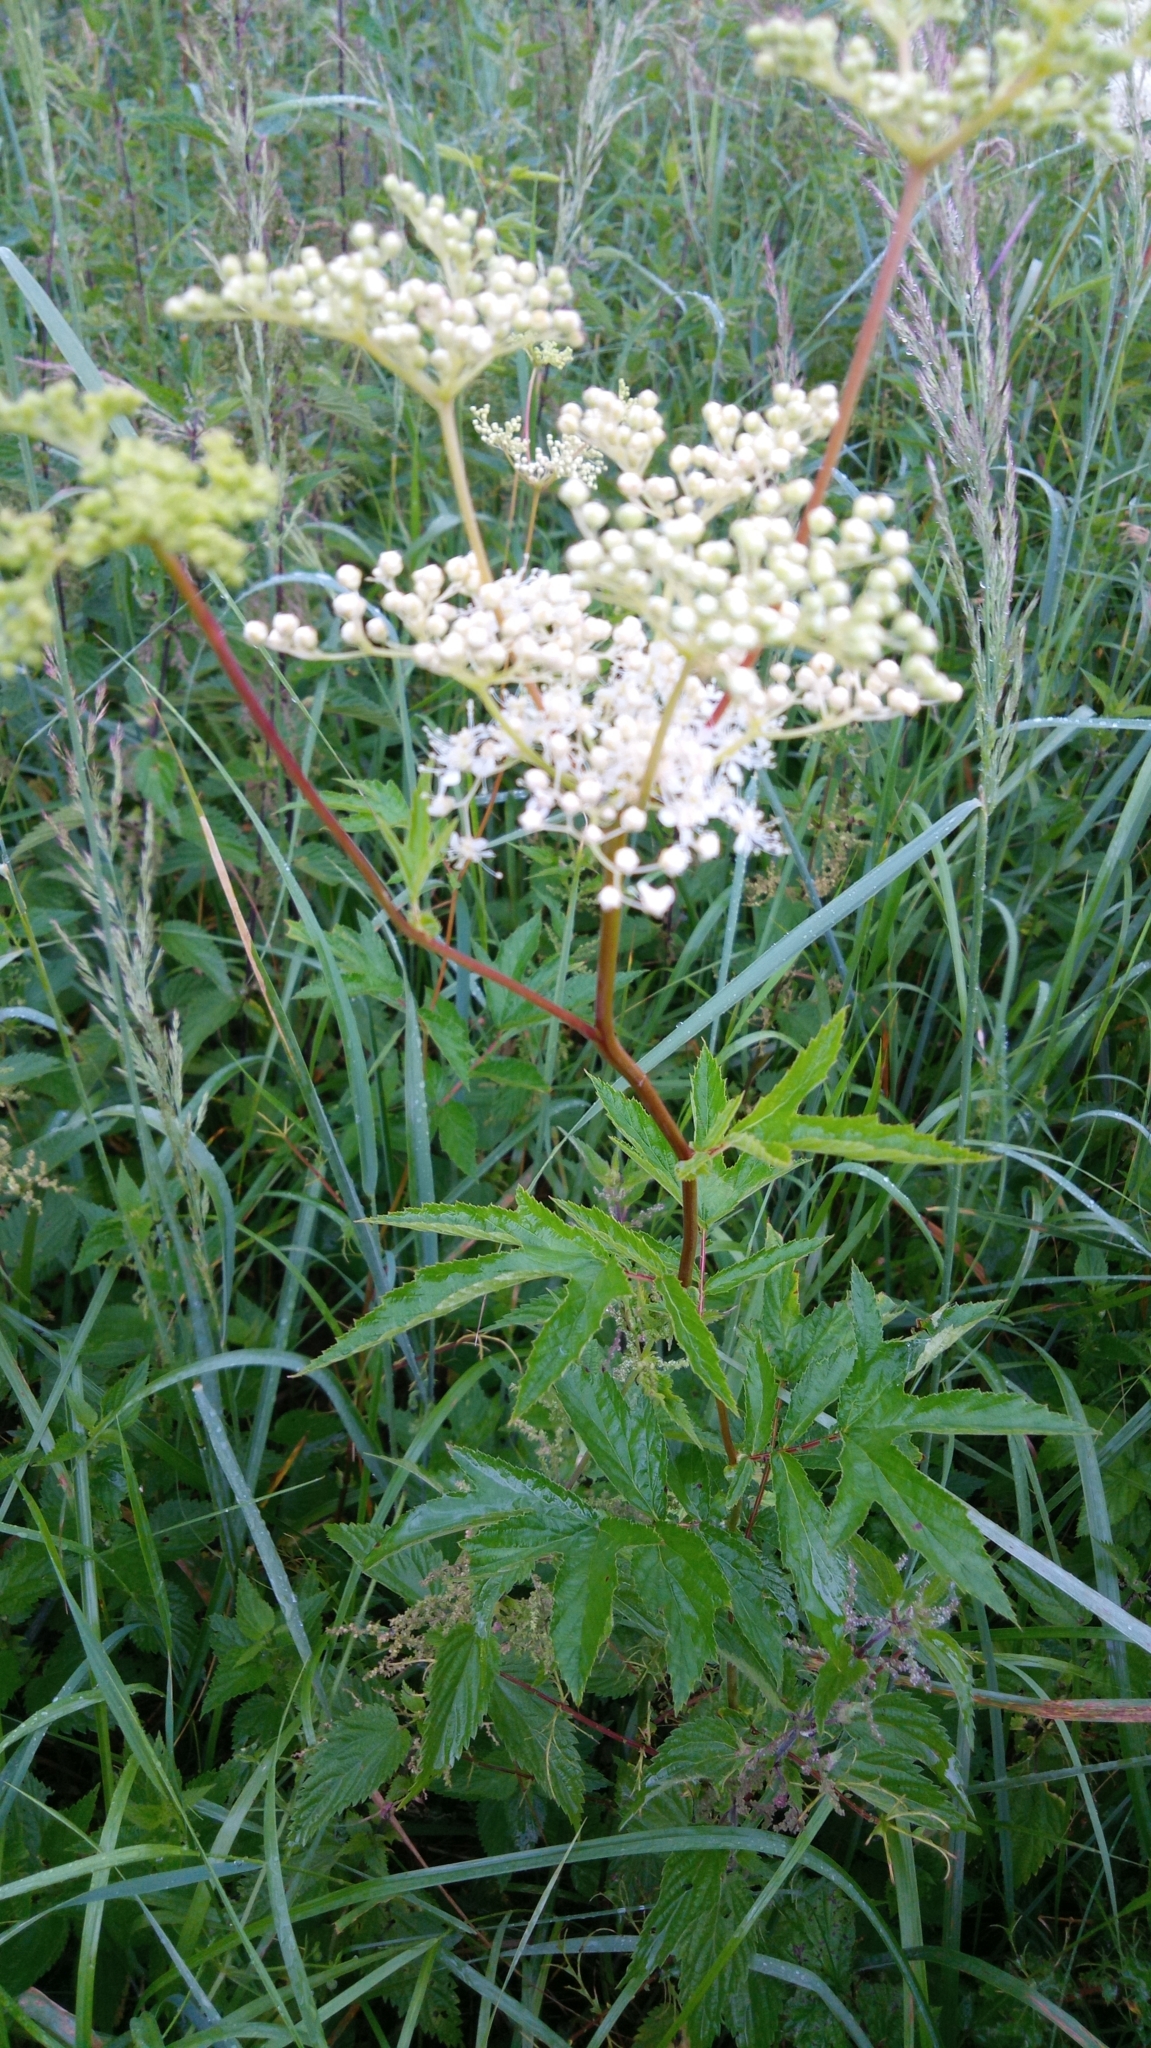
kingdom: Plantae
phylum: Tracheophyta
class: Magnoliopsida
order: Rosales
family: Rosaceae
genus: Filipendula
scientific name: Filipendula ulmaria
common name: Meadowsweet
